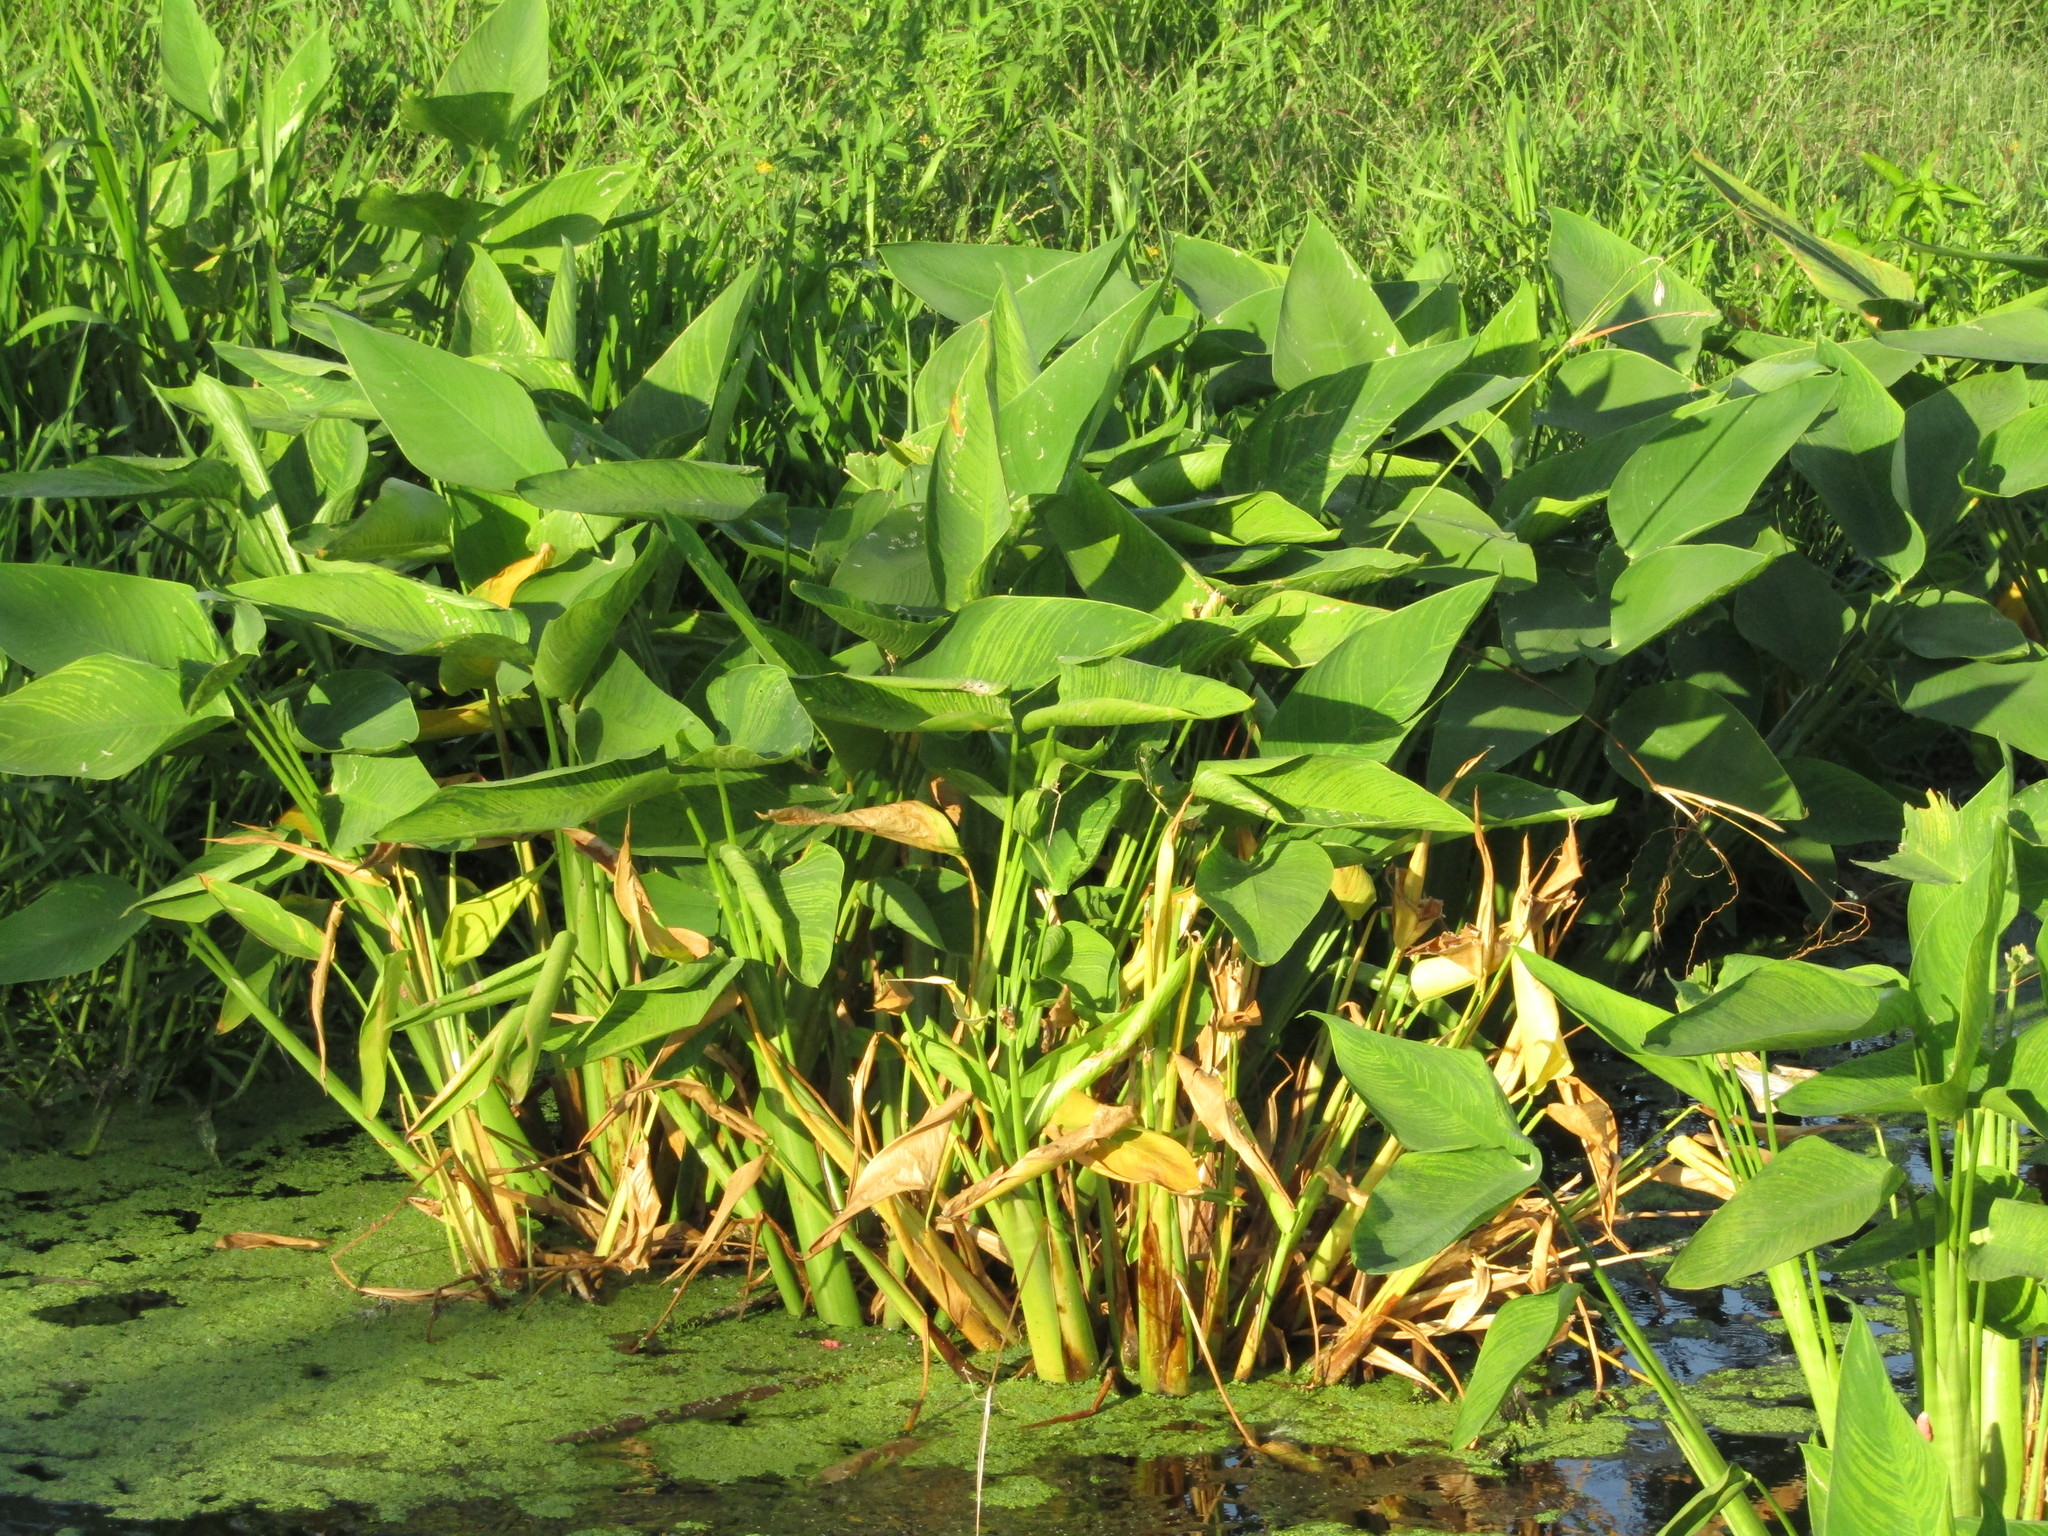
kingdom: Plantae
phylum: Tracheophyta
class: Liliopsida
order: Zingiberales
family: Marantaceae
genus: Thalia
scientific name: Thalia geniculata
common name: Arrowroot
